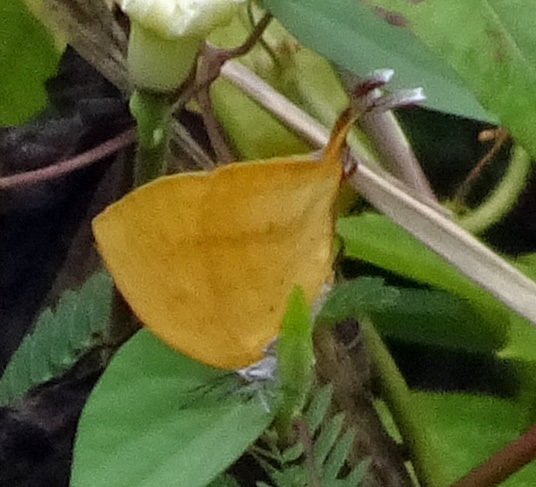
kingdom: Animalia
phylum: Arthropoda
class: Insecta
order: Lepidoptera
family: Lycaenidae
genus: Loxura
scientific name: Loxura atymnus
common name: Common yamfly
